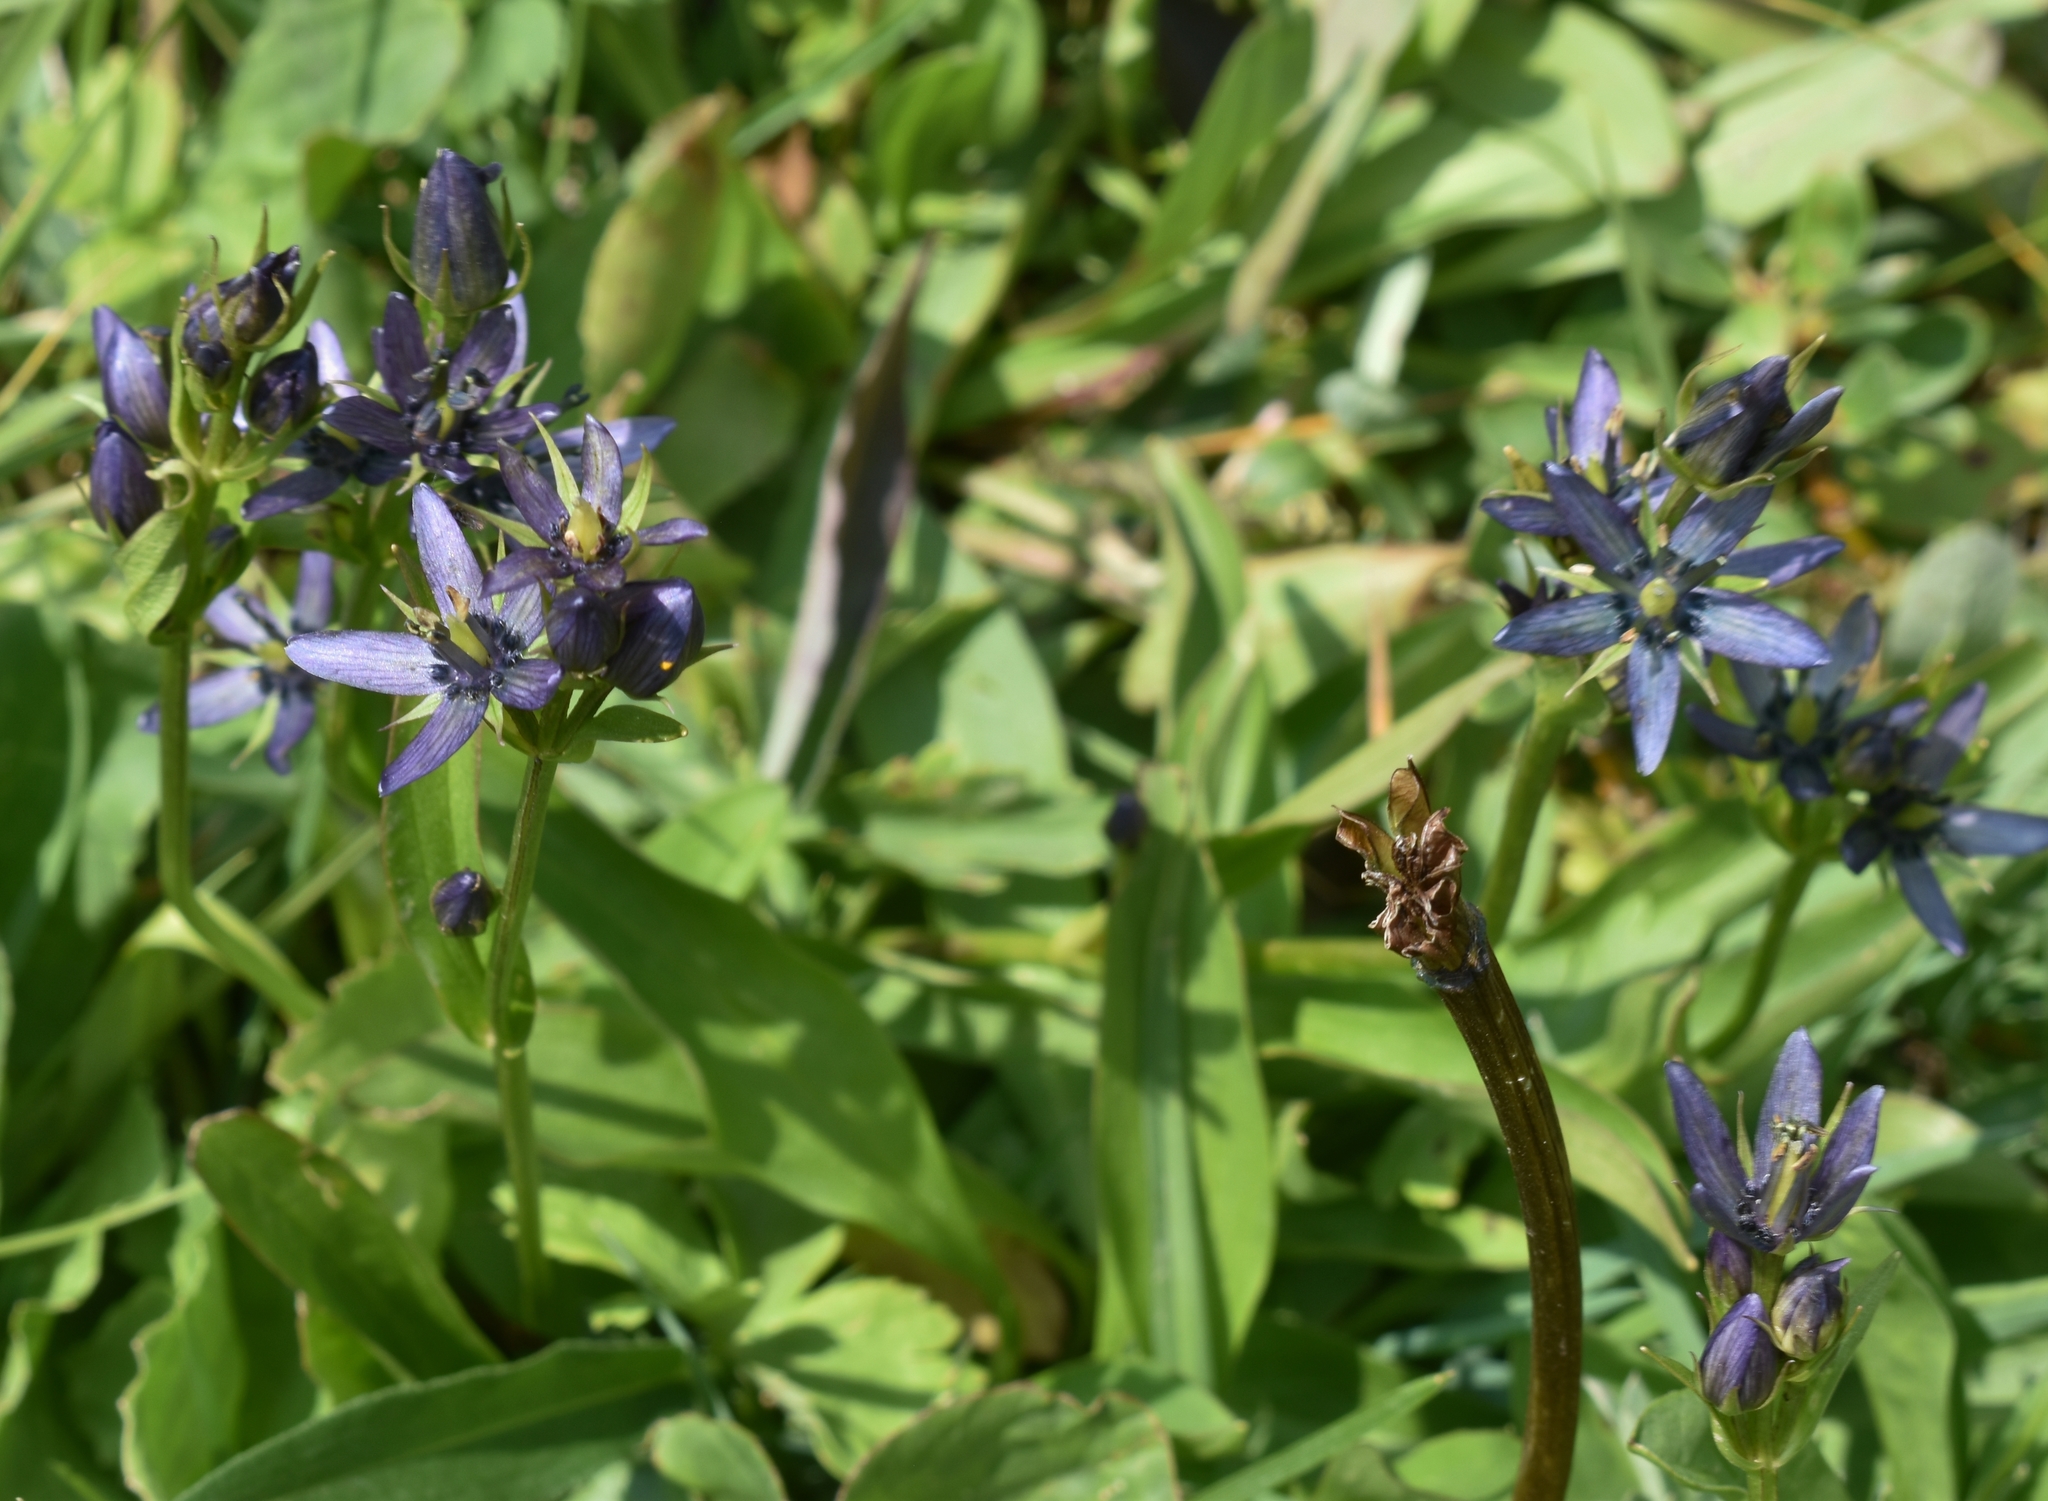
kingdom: Plantae
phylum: Tracheophyta
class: Magnoliopsida
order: Gentianales
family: Gentianaceae
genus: Swertia
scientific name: Swertia perennis
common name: Alpine bog swertia
